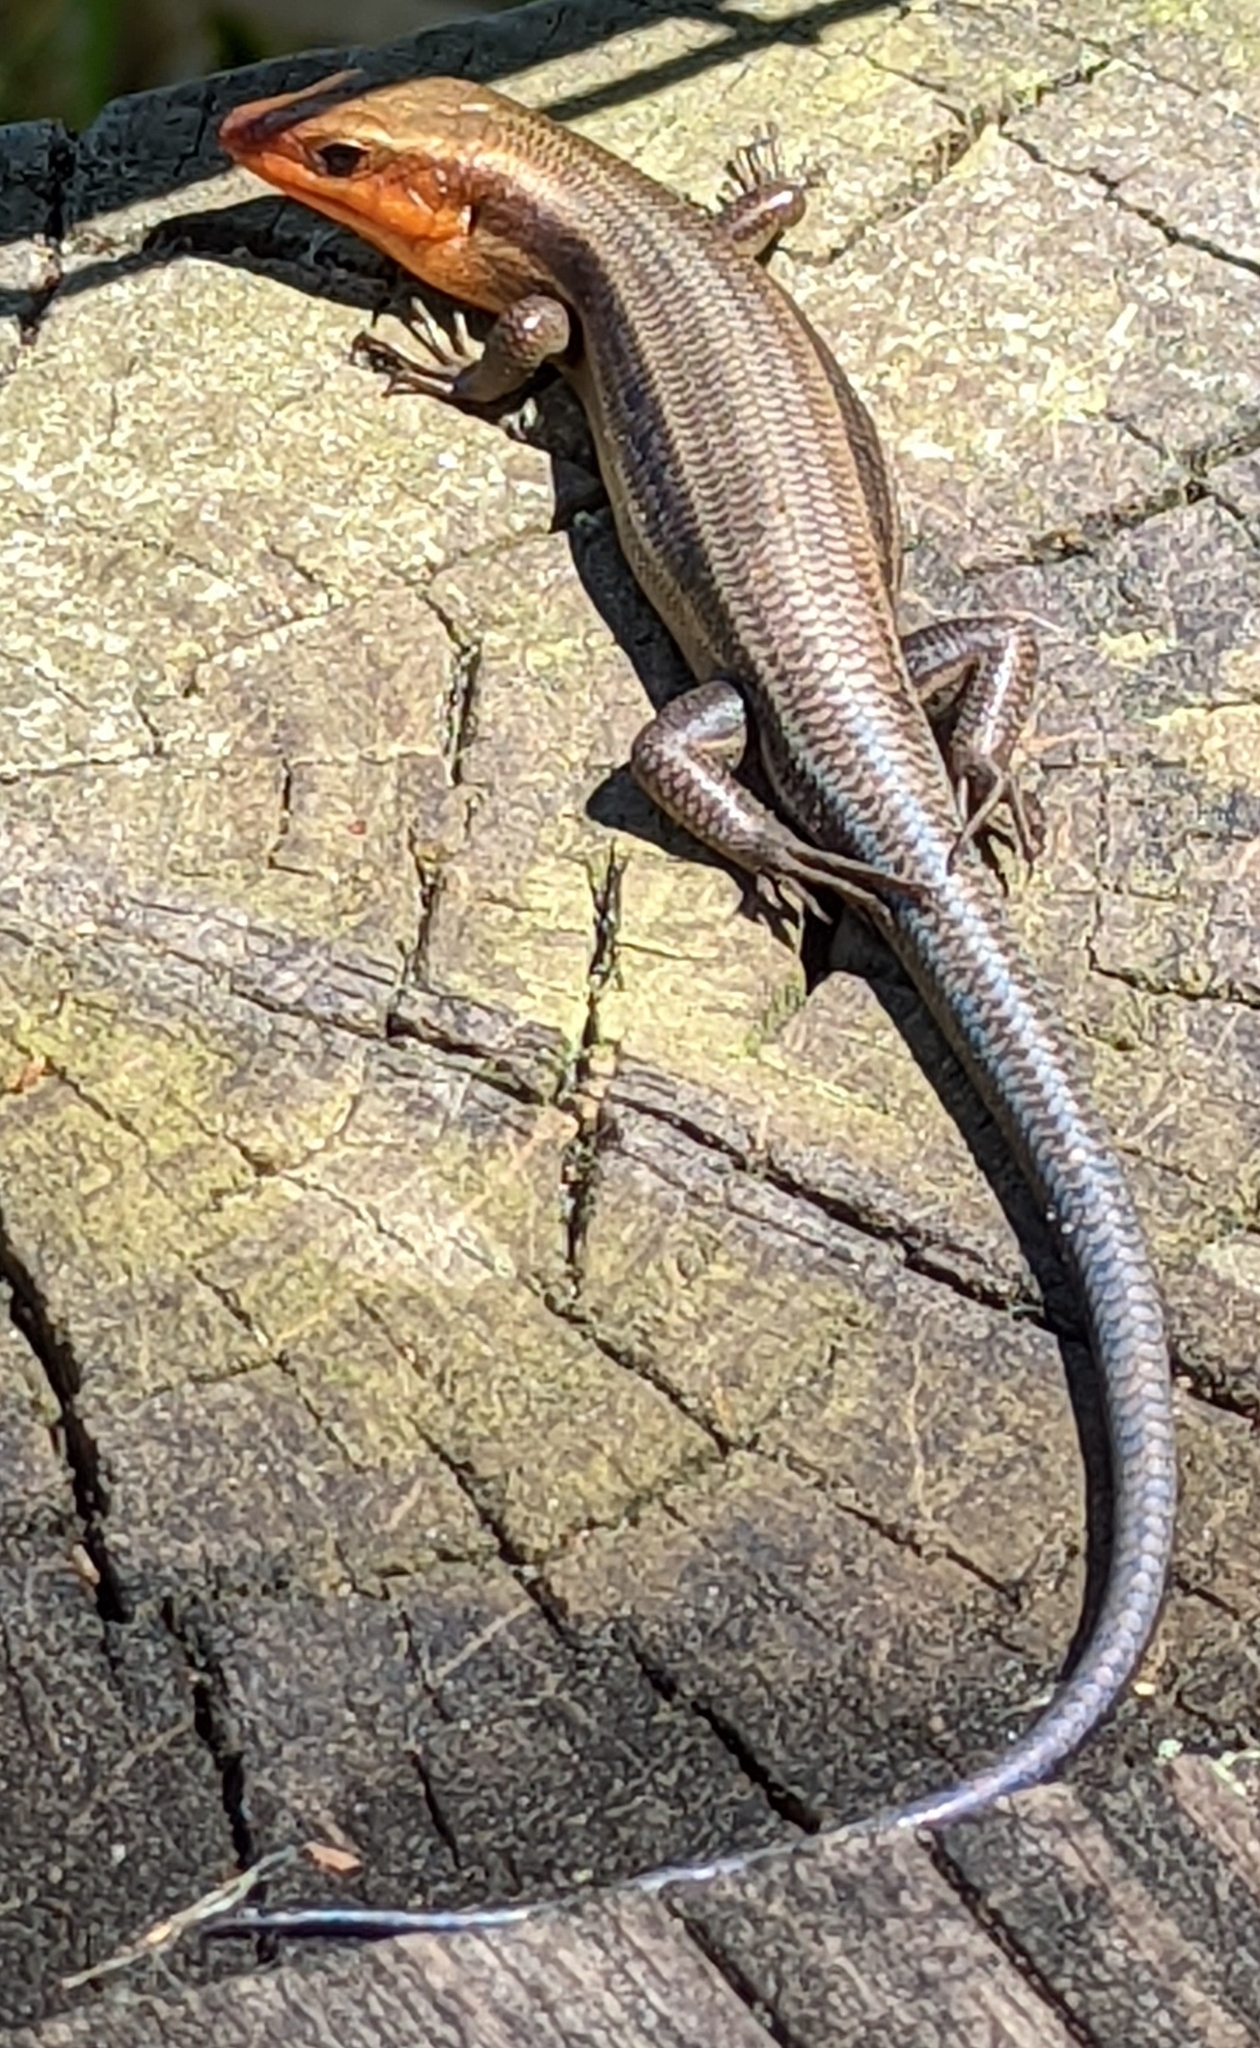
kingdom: Animalia
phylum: Chordata
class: Squamata
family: Scincidae
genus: Plestiodon
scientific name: Plestiodon fasciatus
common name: Five-lined skink
